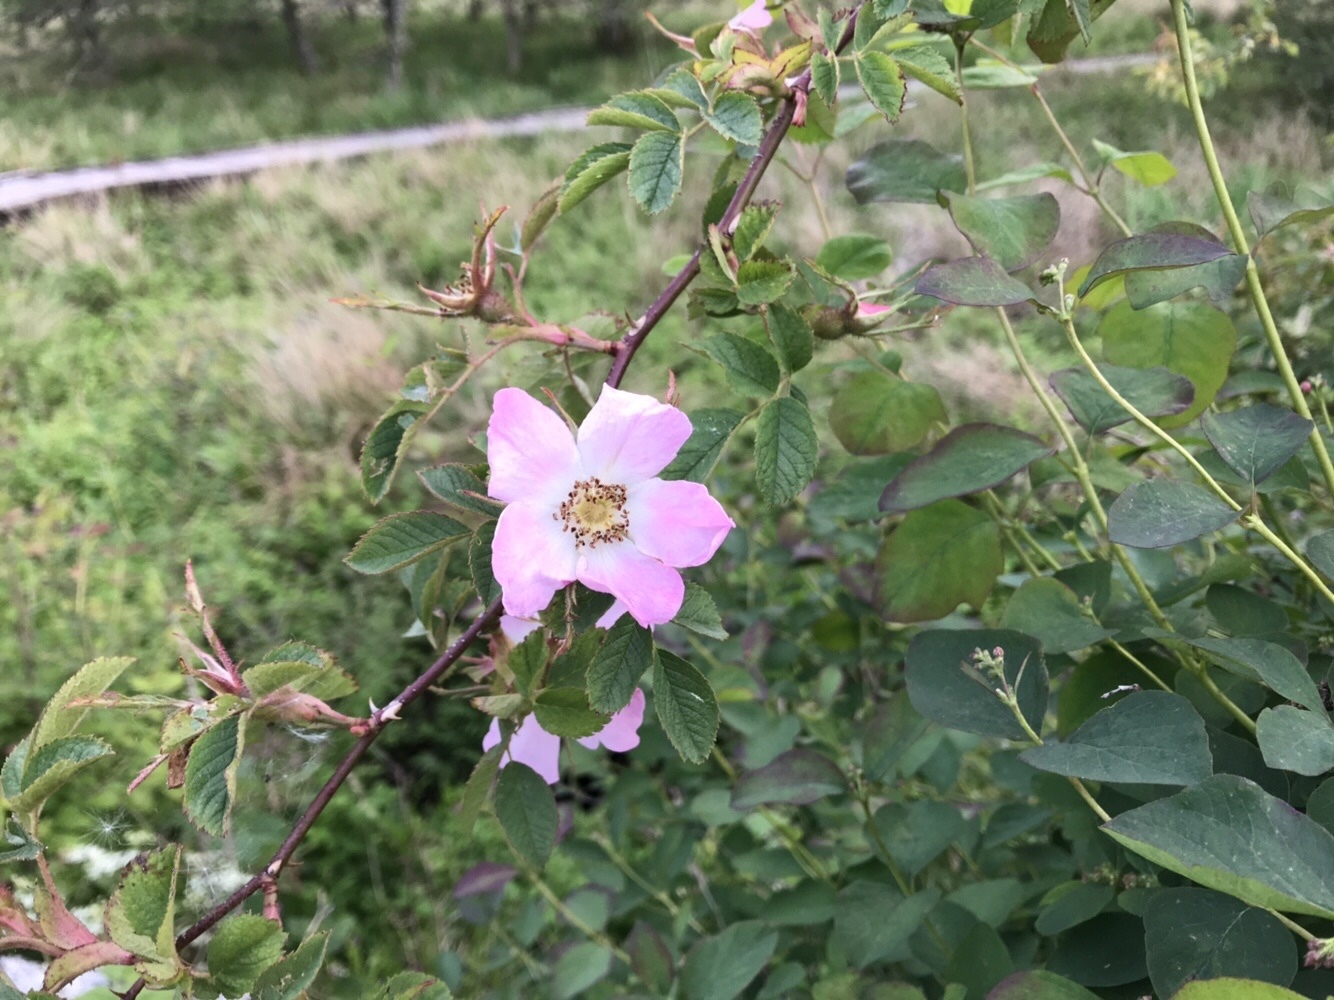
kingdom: Plantae
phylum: Tracheophyta
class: Magnoliopsida
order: Rosales
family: Rosaceae
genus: Rosa
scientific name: Rosa canina
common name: Dog rose
